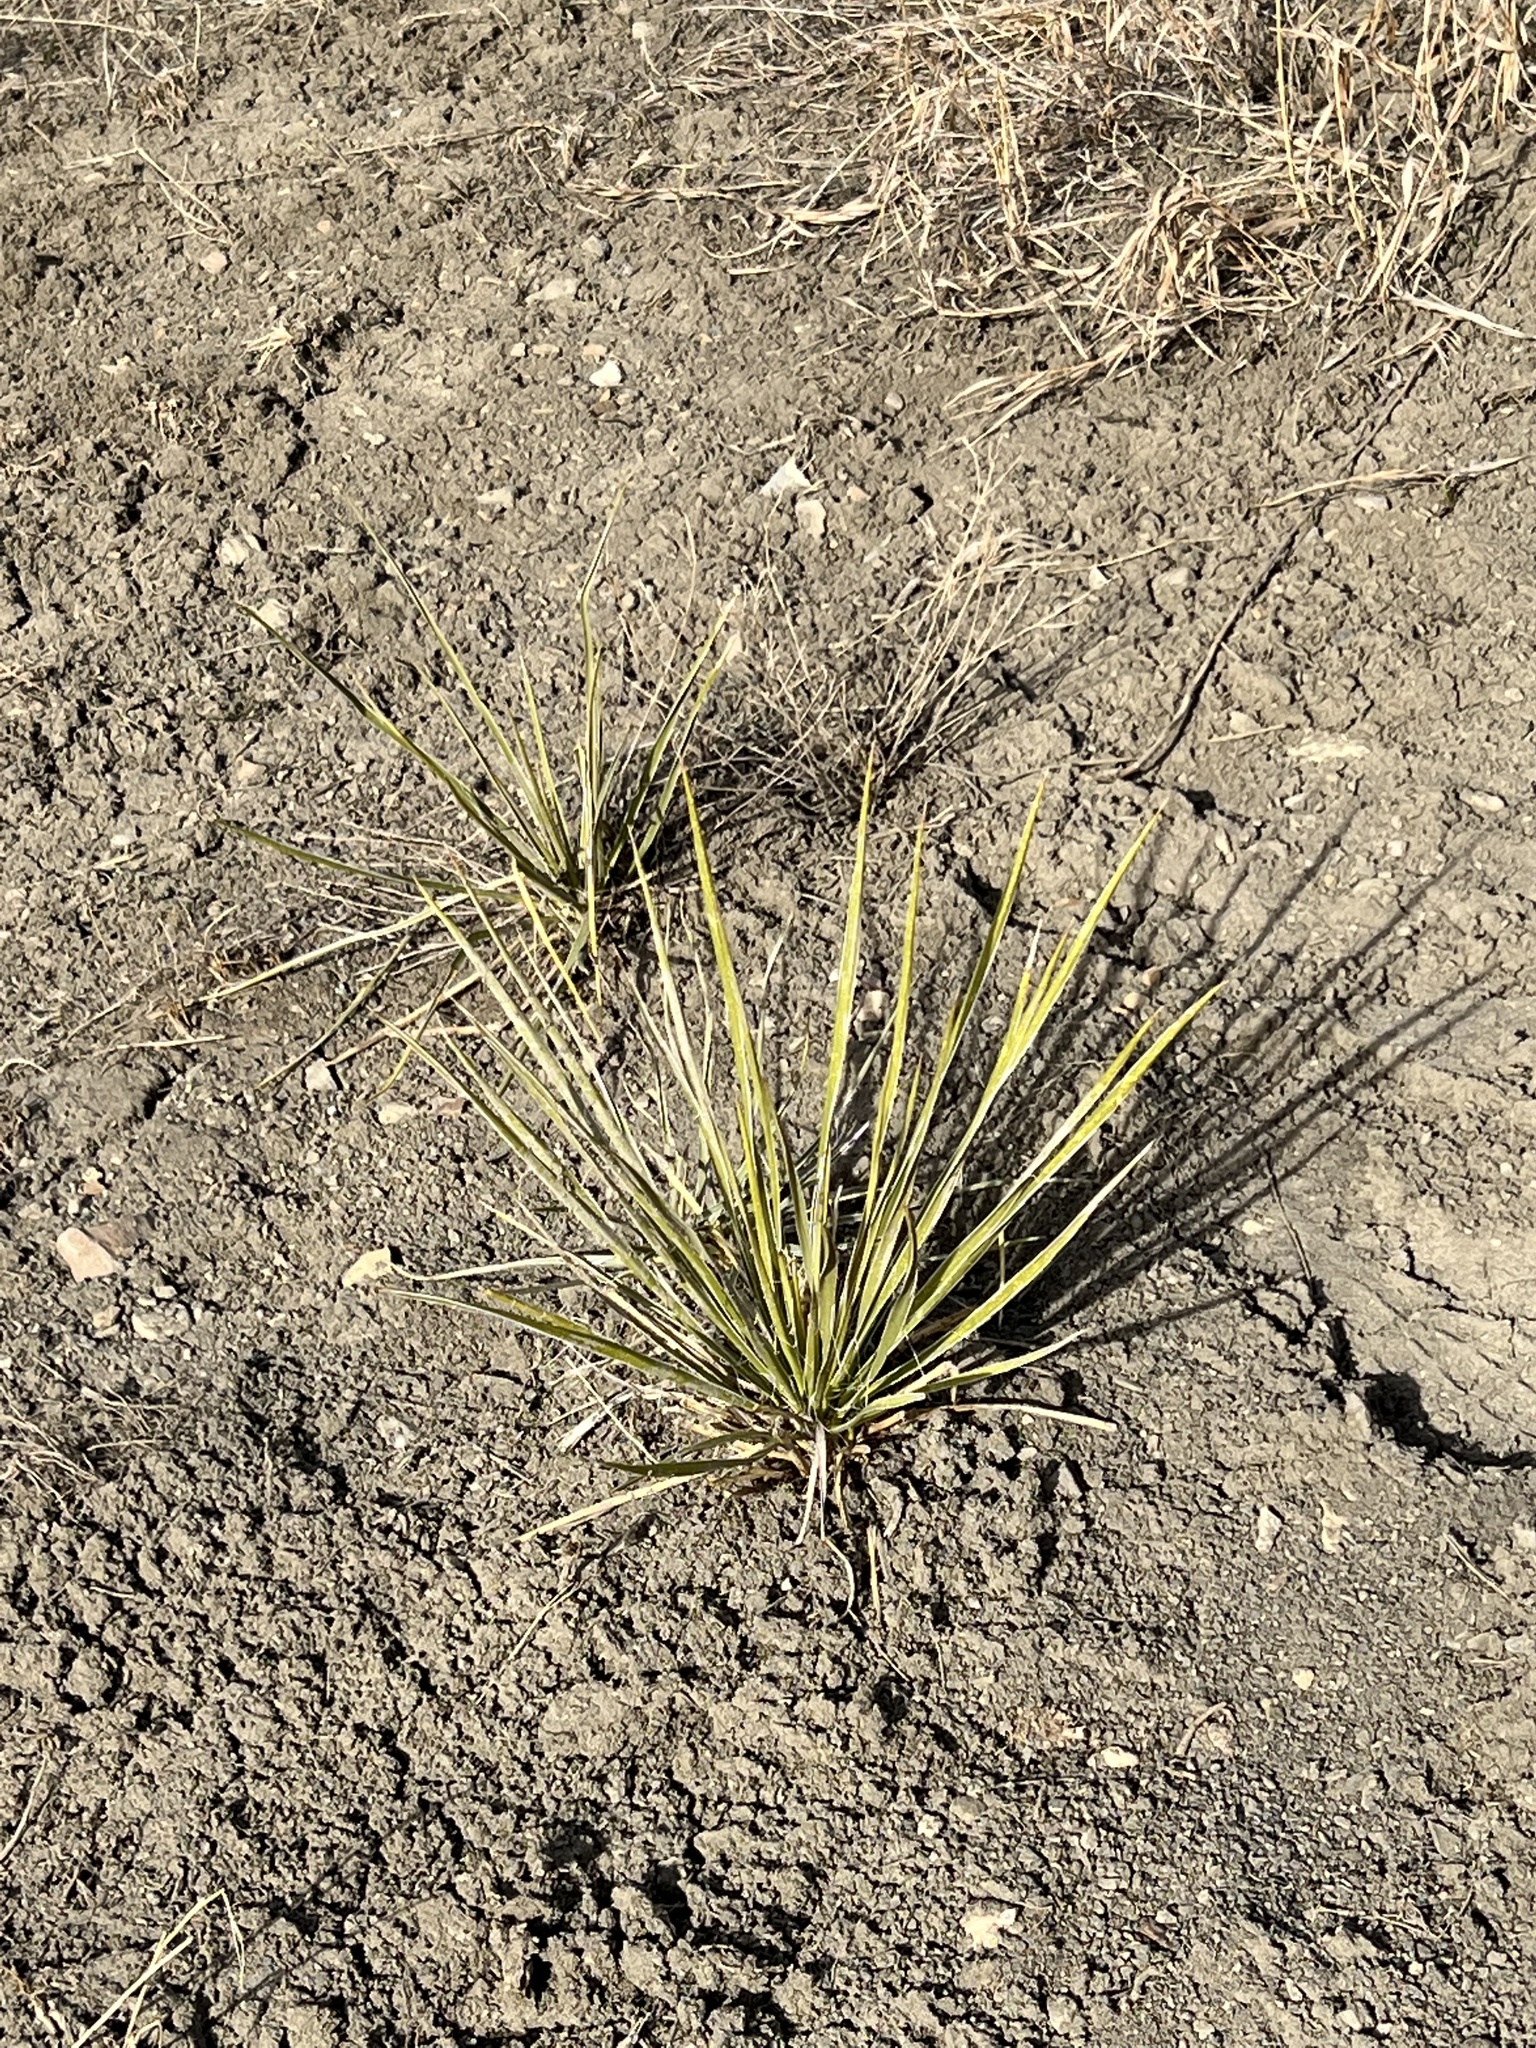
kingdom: Plantae
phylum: Tracheophyta
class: Liliopsida
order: Asparagales
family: Asparagaceae
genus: Yucca
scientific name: Yucca glauca
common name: Great plains yucca
